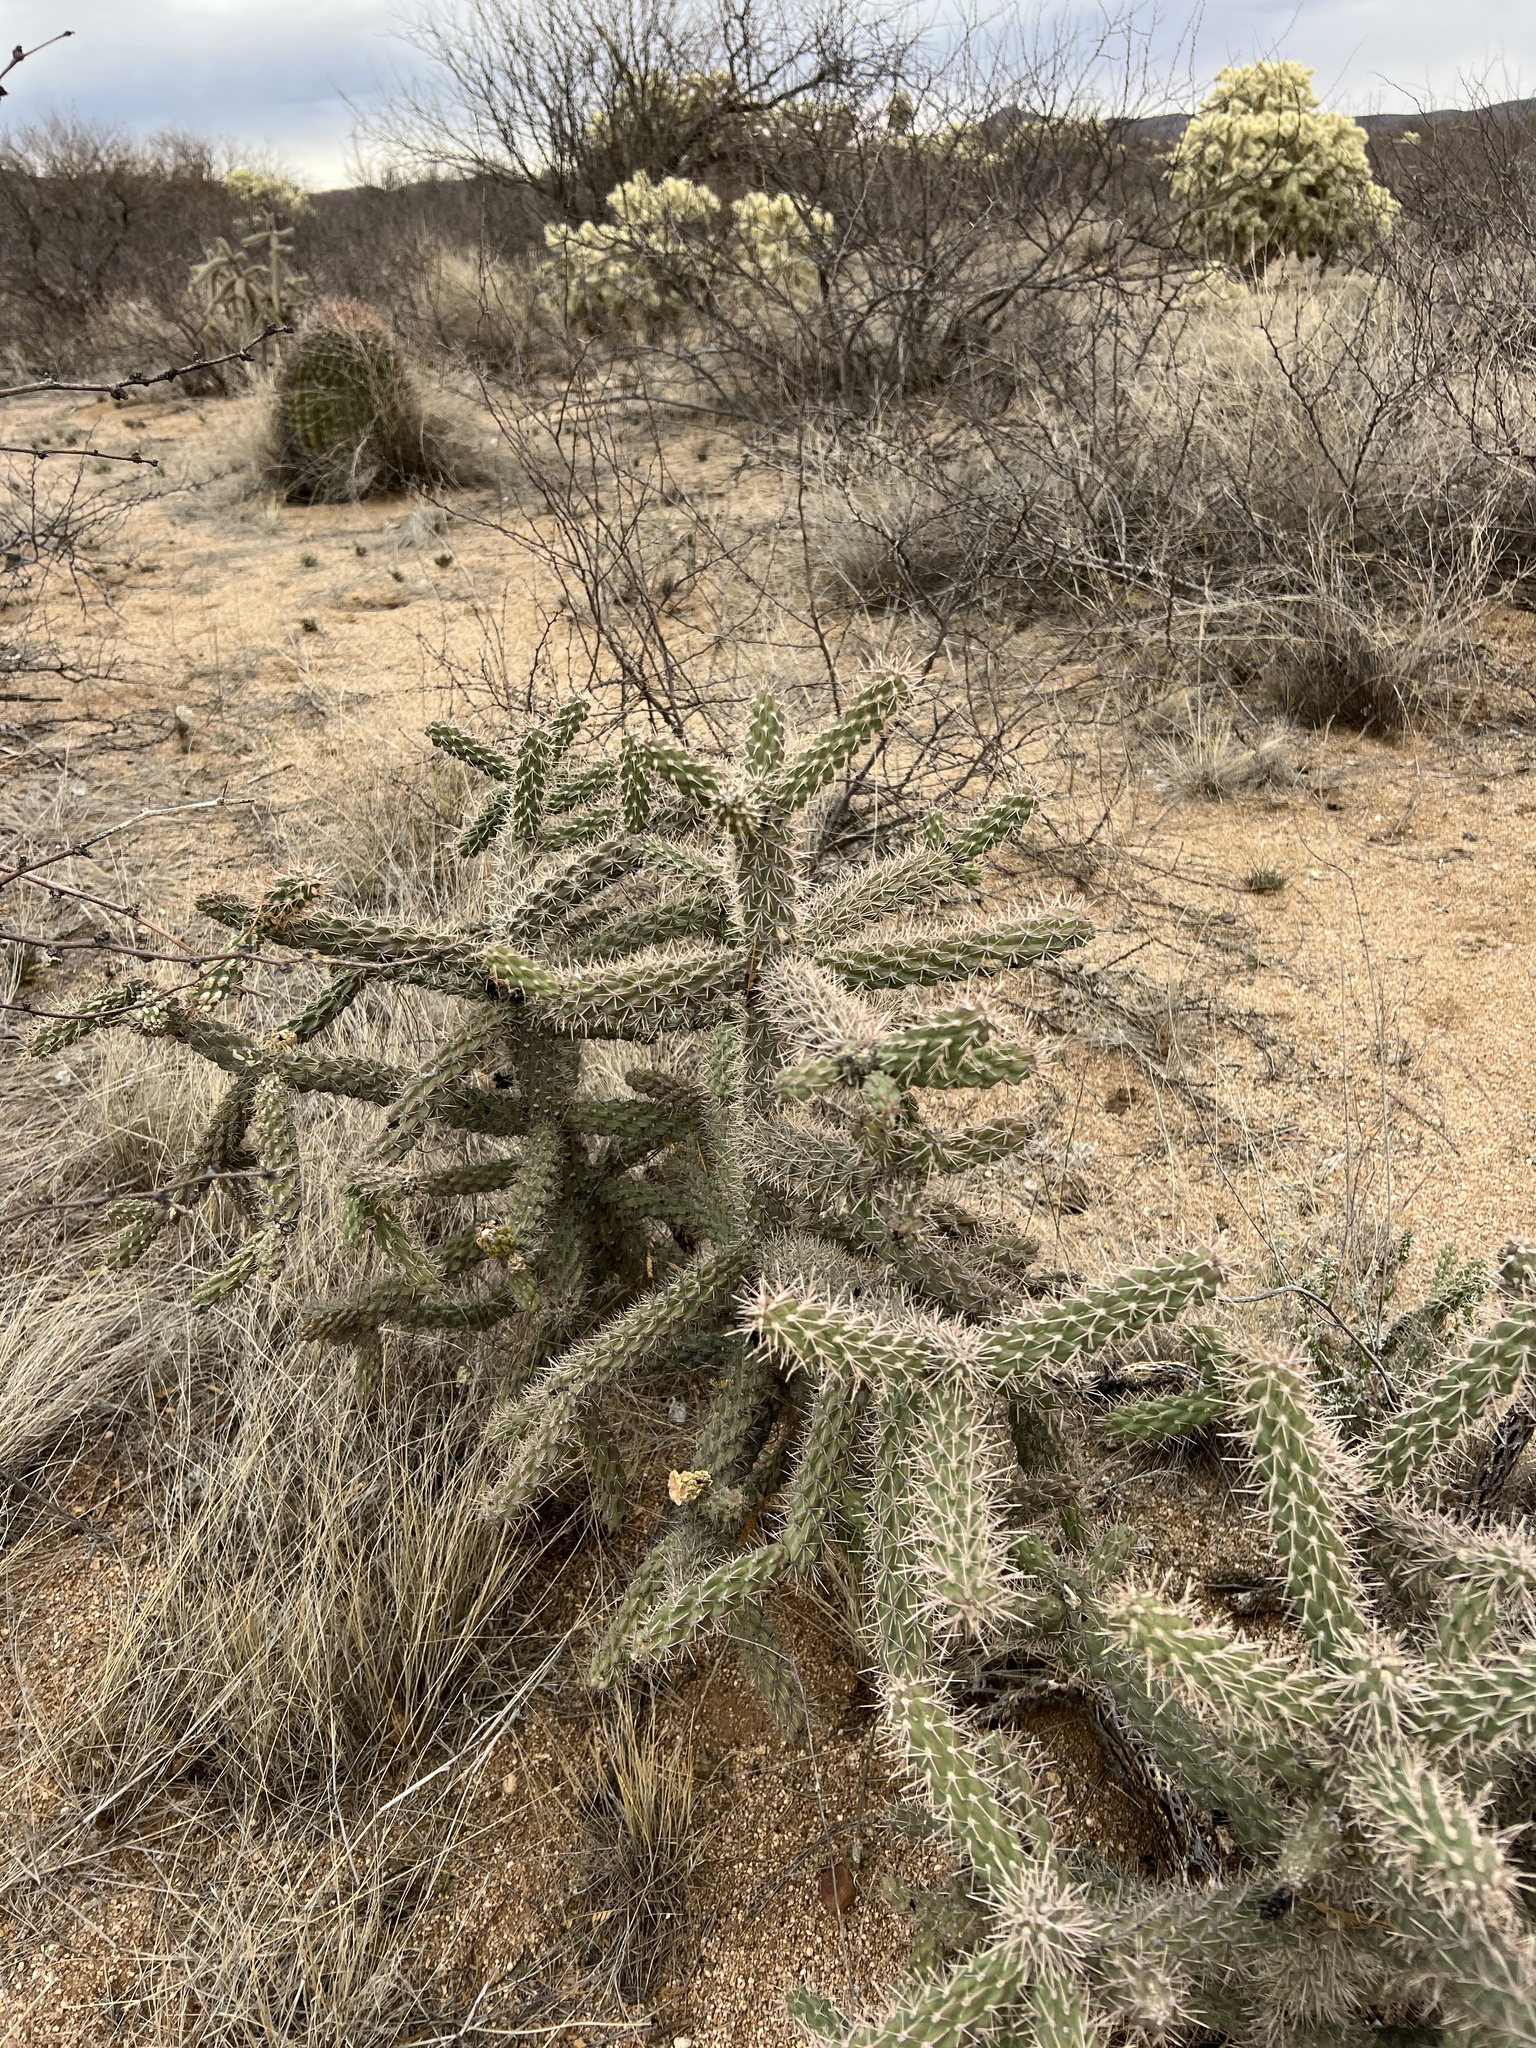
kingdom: Plantae
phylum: Tracheophyta
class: Magnoliopsida
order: Caryophyllales
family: Cactaceae
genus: Cylindropuntia
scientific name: Cylindropuntia imbricata
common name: Candelabrum cactus
